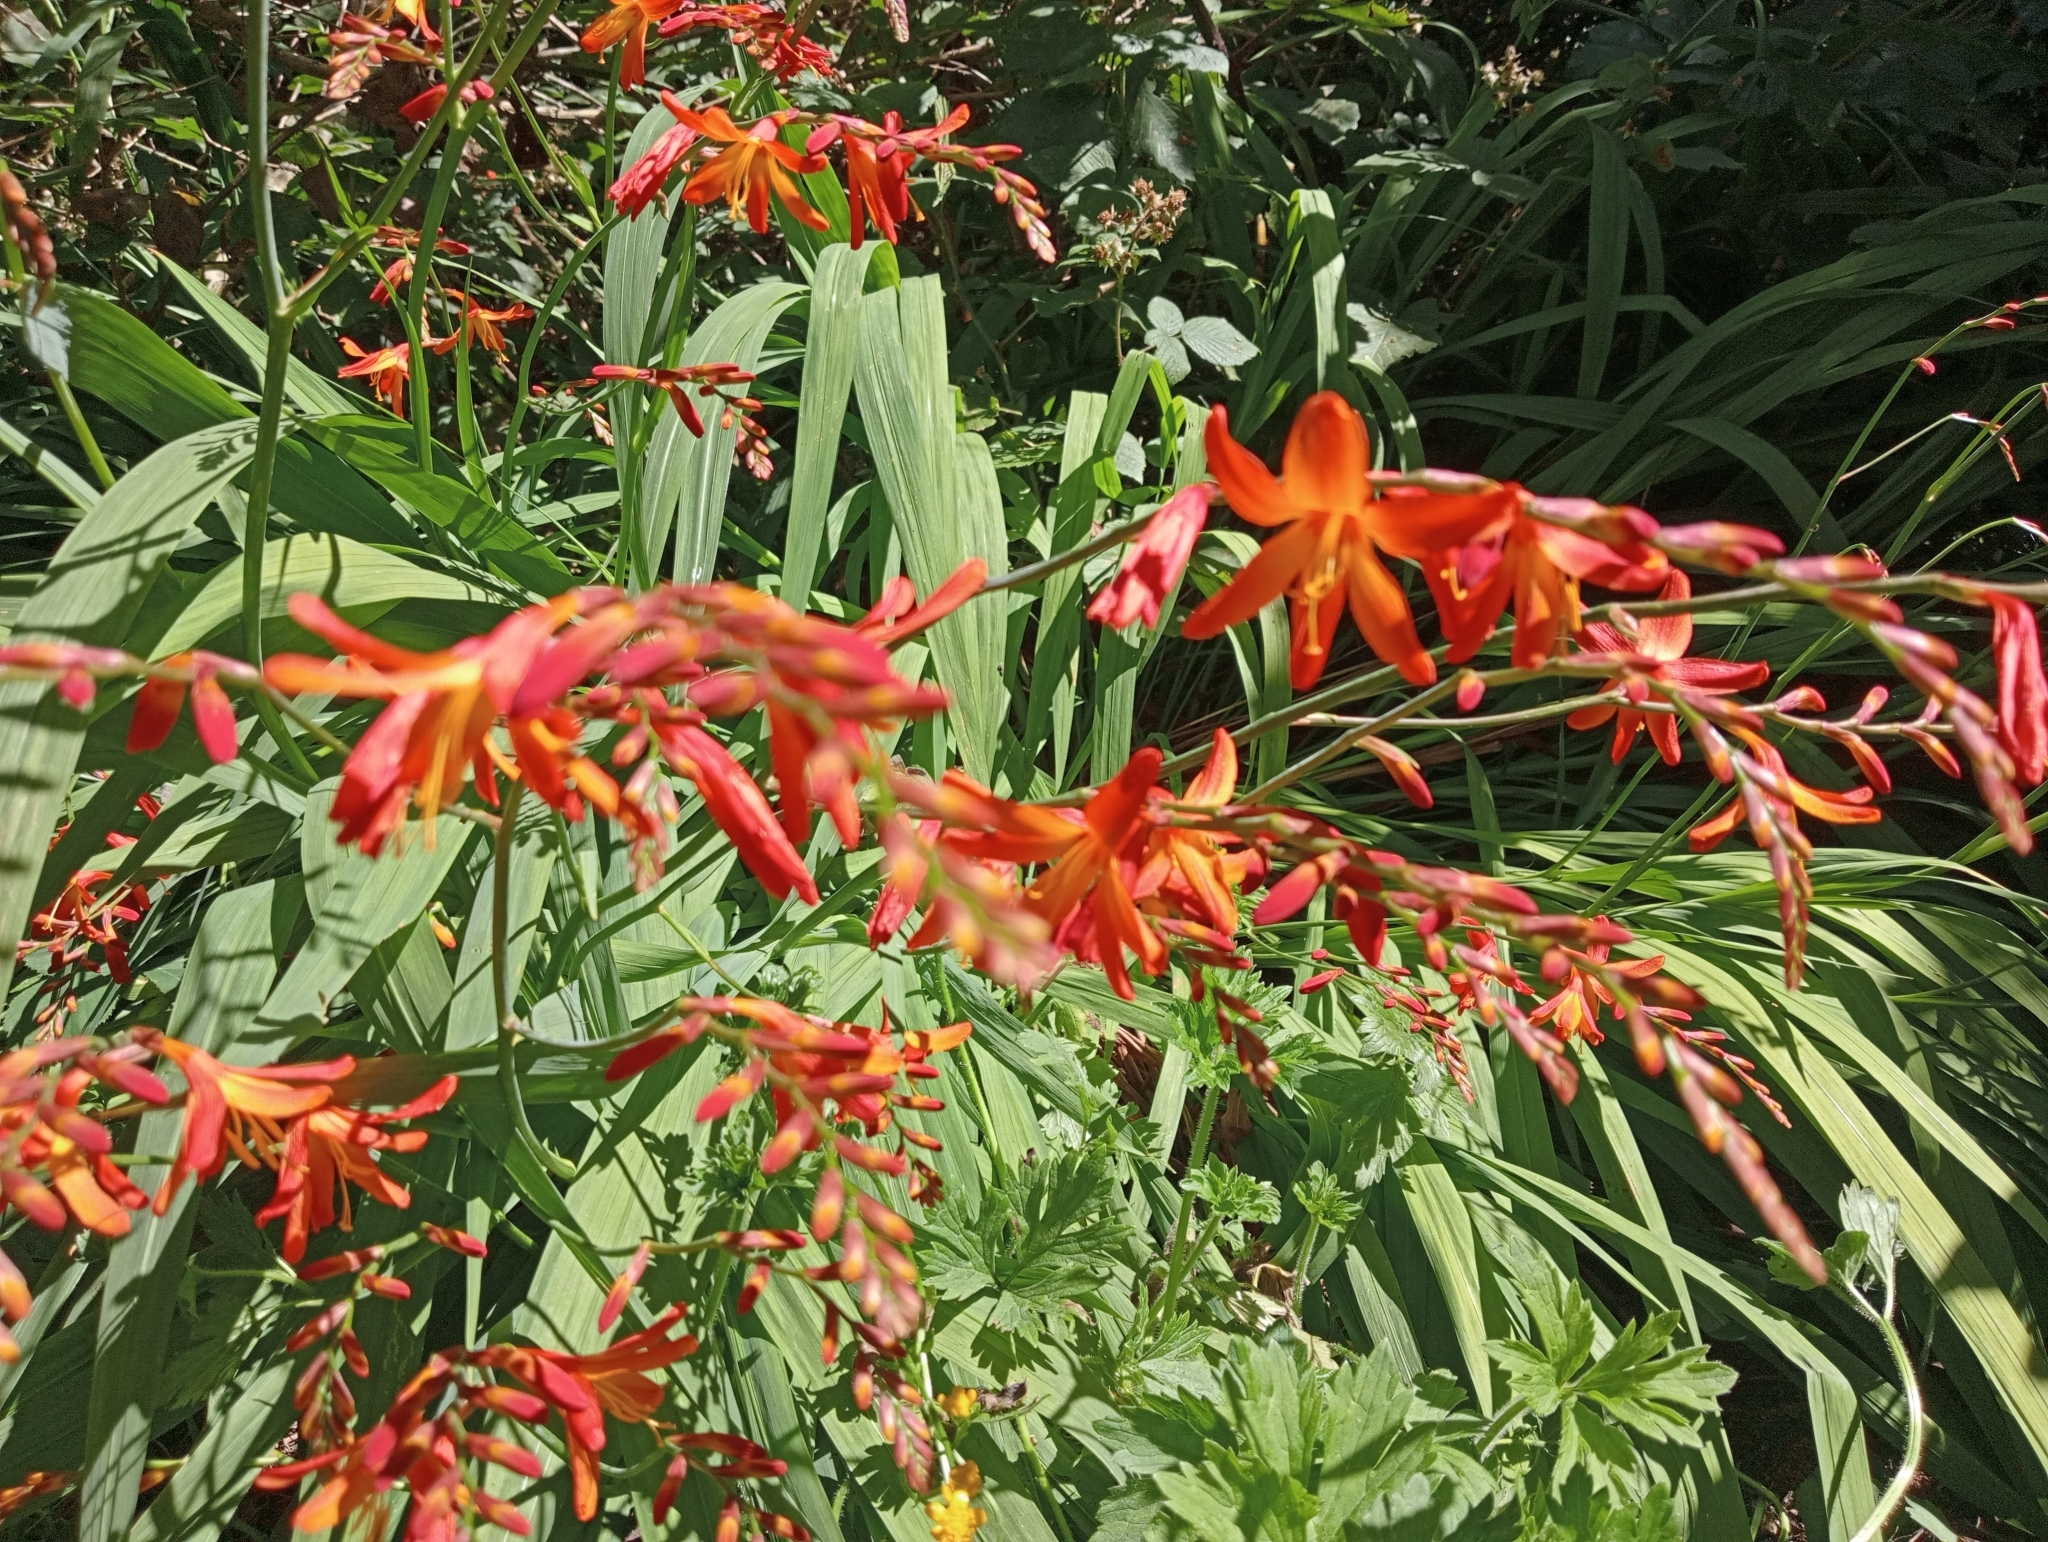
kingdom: Plantae
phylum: Tracheophyta
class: Liliopsida
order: Asparagales
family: Iridaceae
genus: Crocosmia
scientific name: Crocosmia crocosmiiflora
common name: Montbretia
